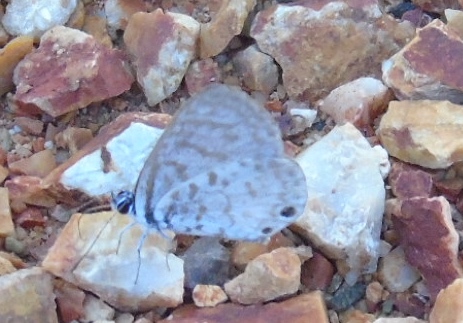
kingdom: Animalia
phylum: Arthropoda
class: Insecta
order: Lepidoptera
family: Lycaenidae
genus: Leptotes
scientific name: Leptotes cassius
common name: Cassius blue
